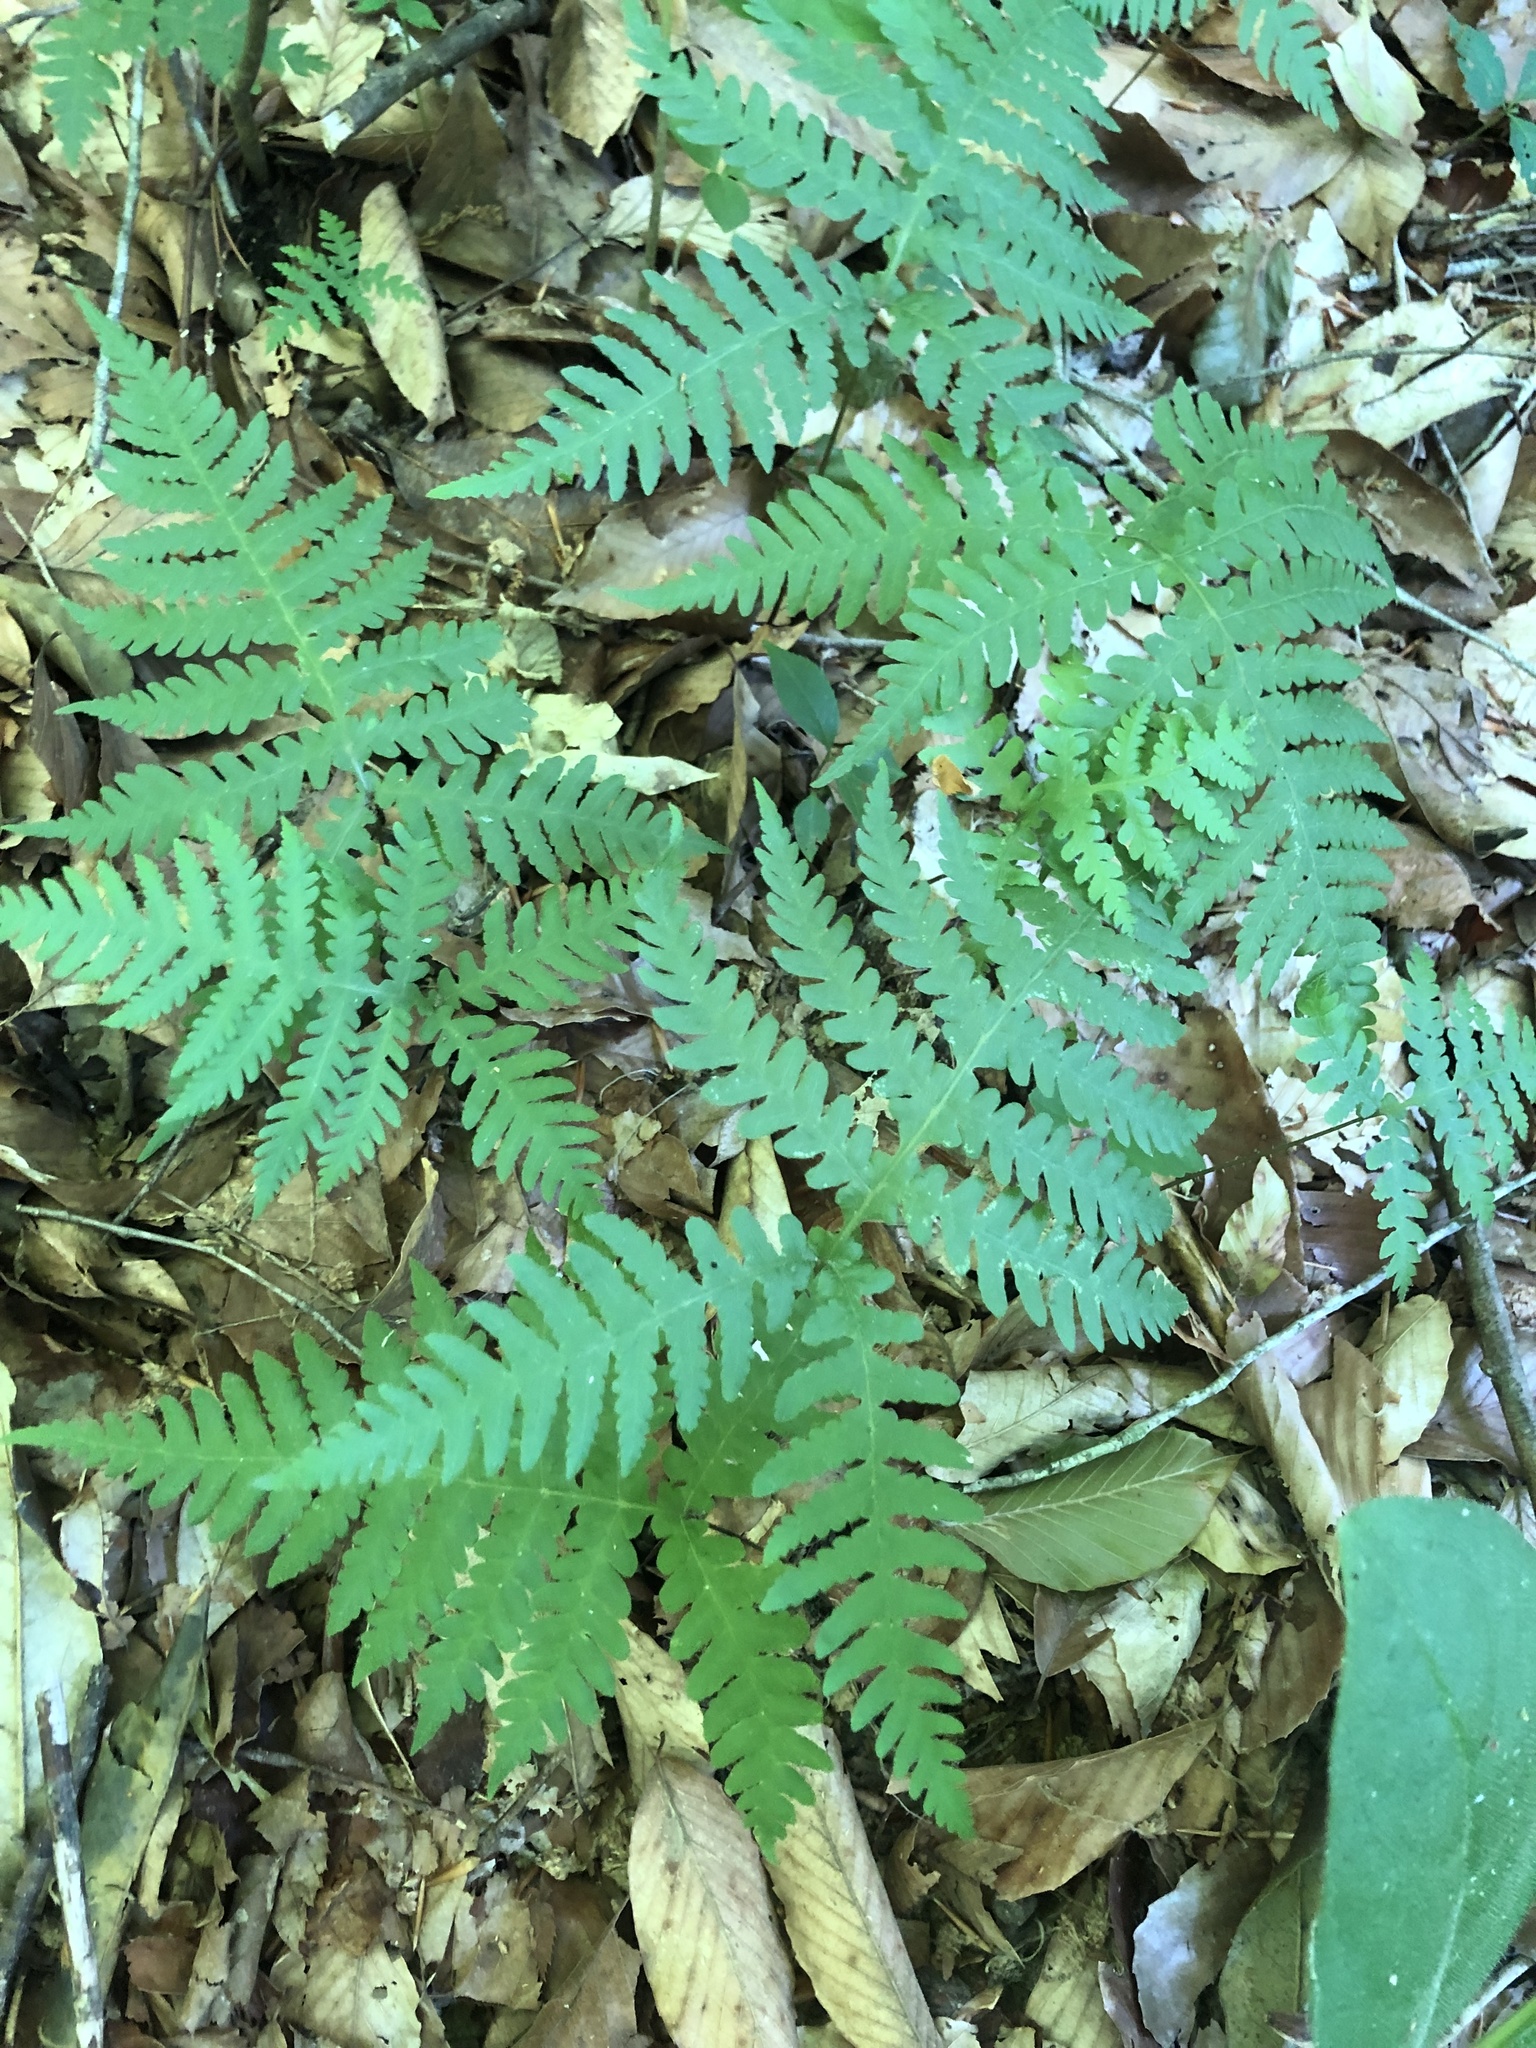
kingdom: Plantae
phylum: Tracheophyta
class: Polypodiopsida
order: Polypodiales
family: Thelypteridaceae
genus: Phegopteris
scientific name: Phegopteris hexagonoptera
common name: Broad beech fern
